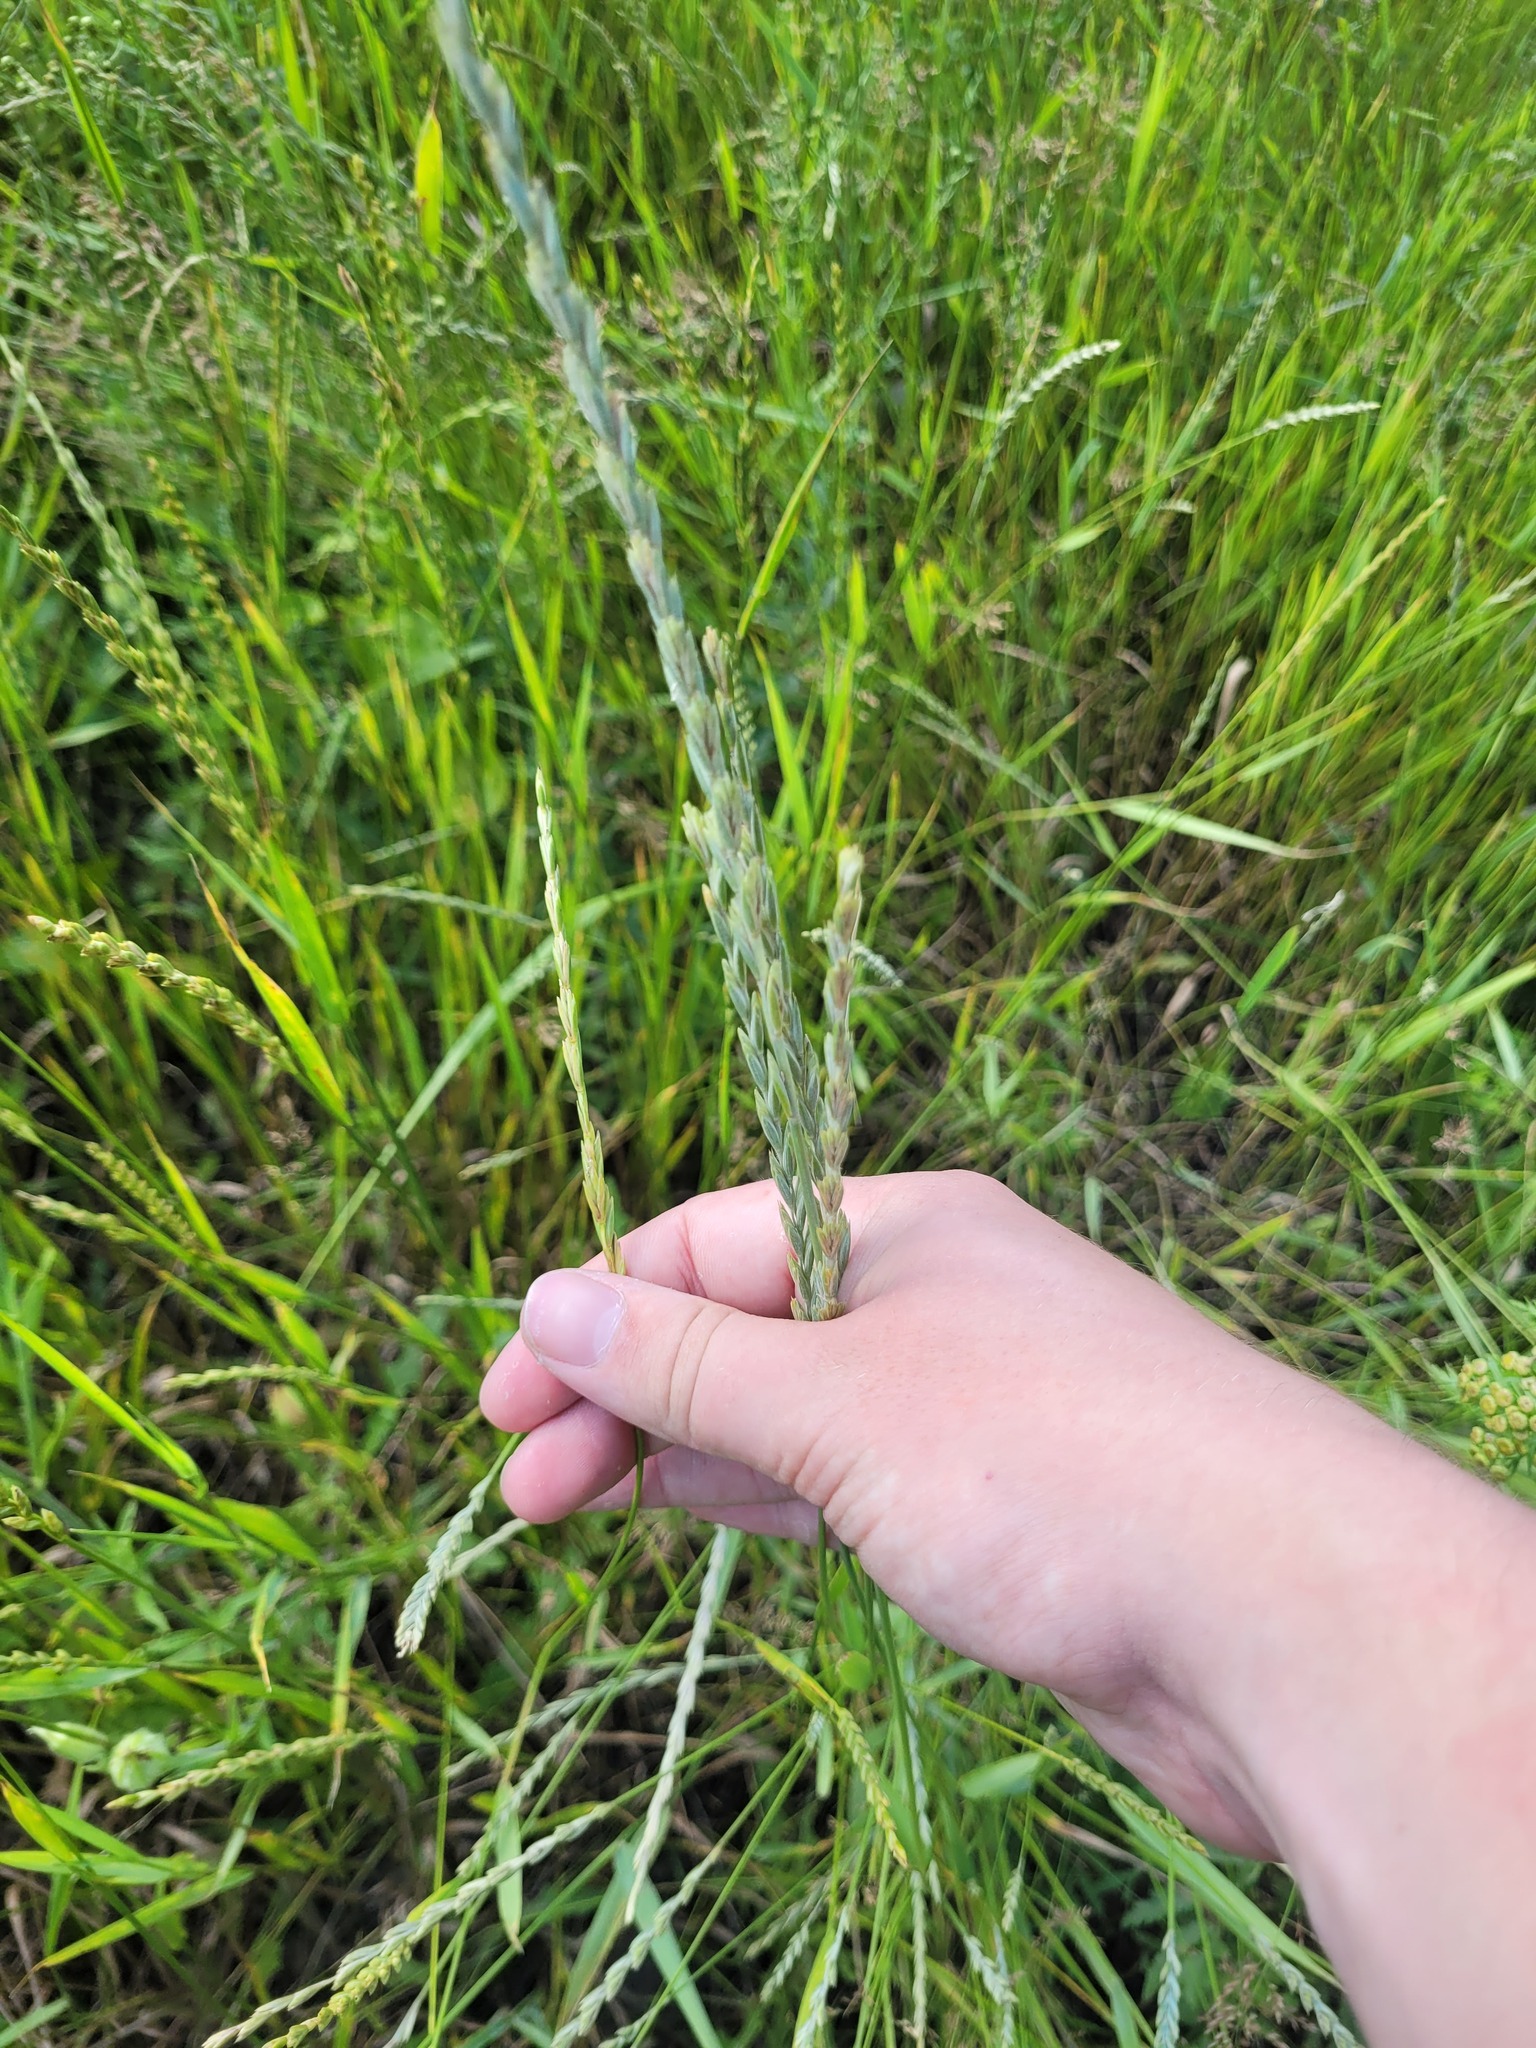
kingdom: Plantae
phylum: Tracheophyta
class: Liliopsida
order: Poales
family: Poaceae
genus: Elymus
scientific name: Elymus repens
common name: Quackgrass
